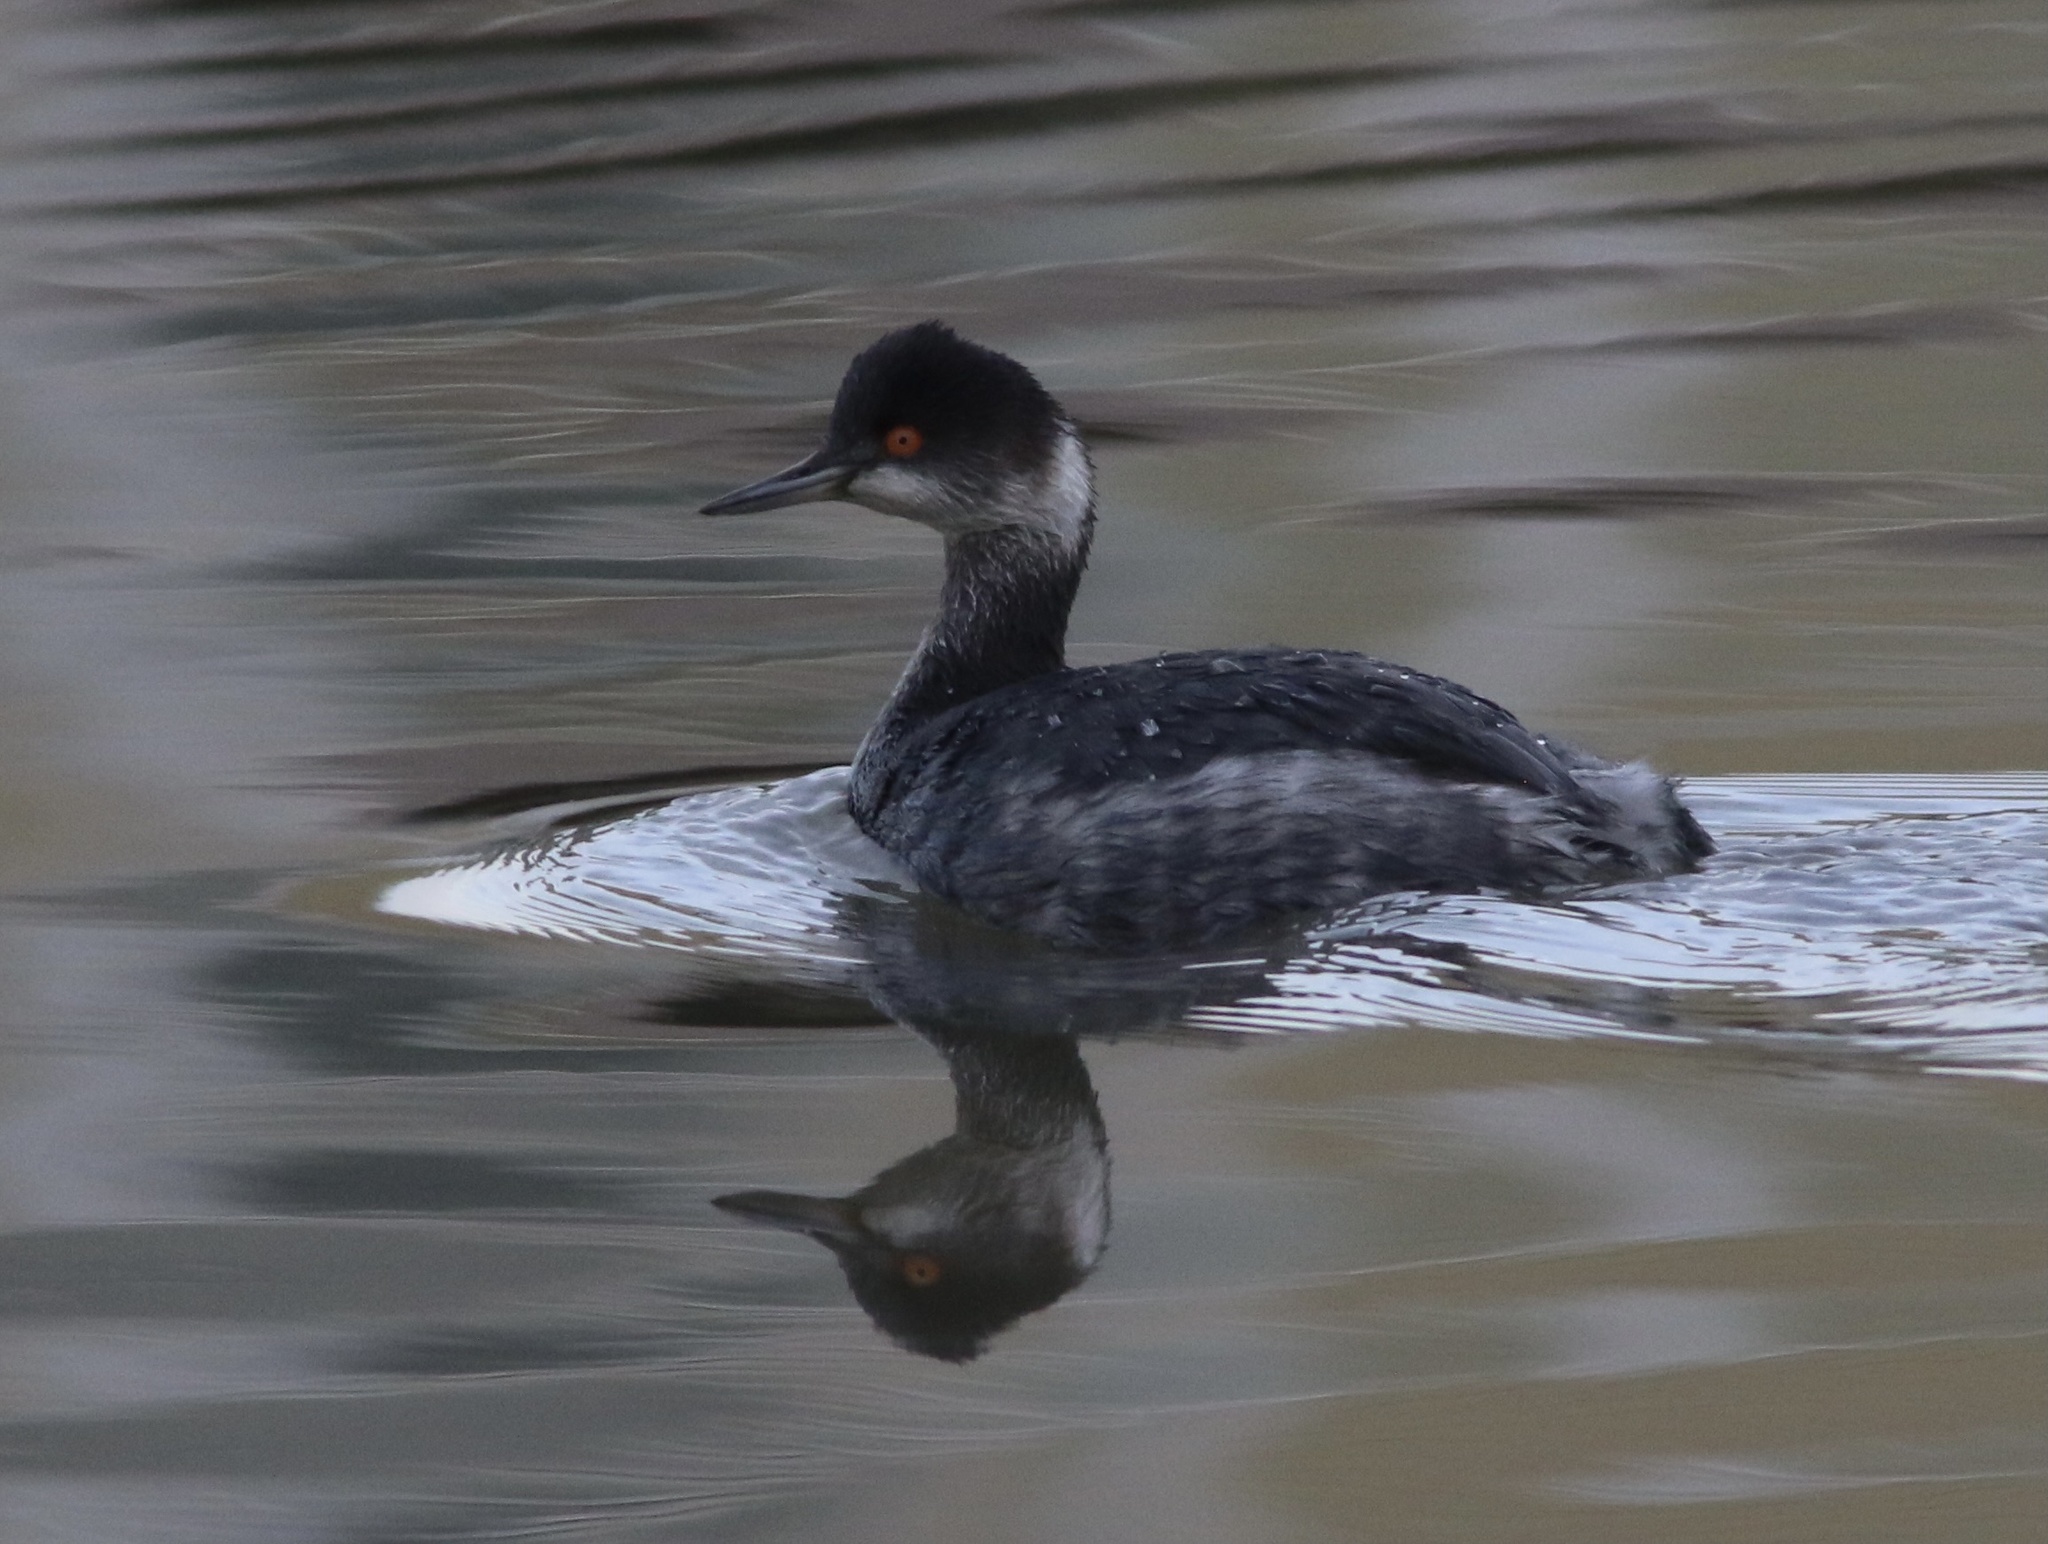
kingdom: Animalia
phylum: Chordata
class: Aves
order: Podicipediformes
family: Podicipedidae
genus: Podiceps
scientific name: Podiceps nigricollis
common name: Black-necked grebe
